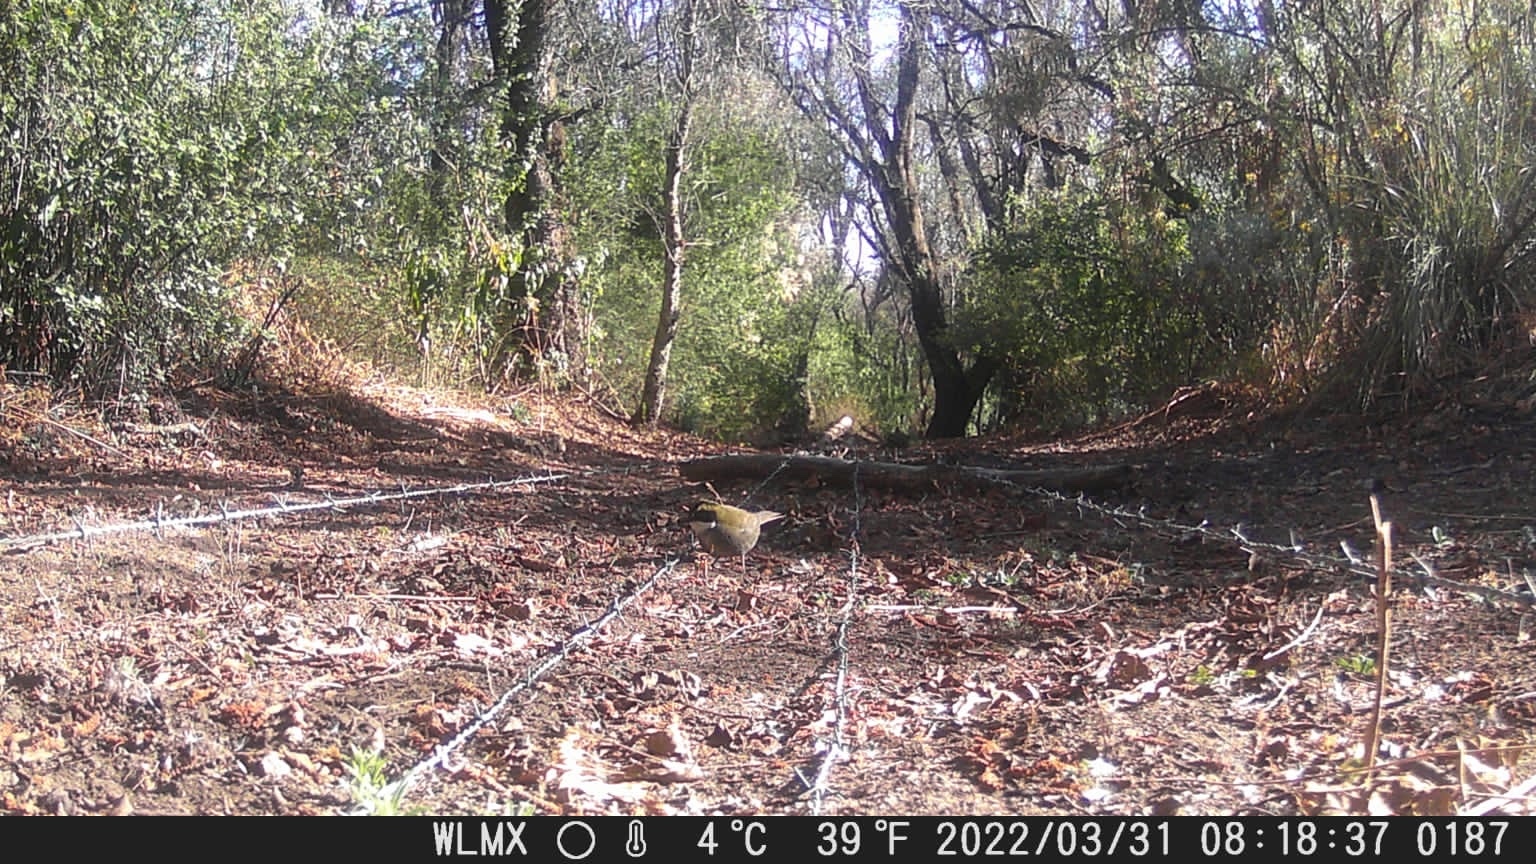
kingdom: Animalia
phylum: Chordata
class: Aves
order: Passeriformes
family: Passerellidae
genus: Arremon
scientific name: Arremon virenticeps
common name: Green-striped brushfinch
